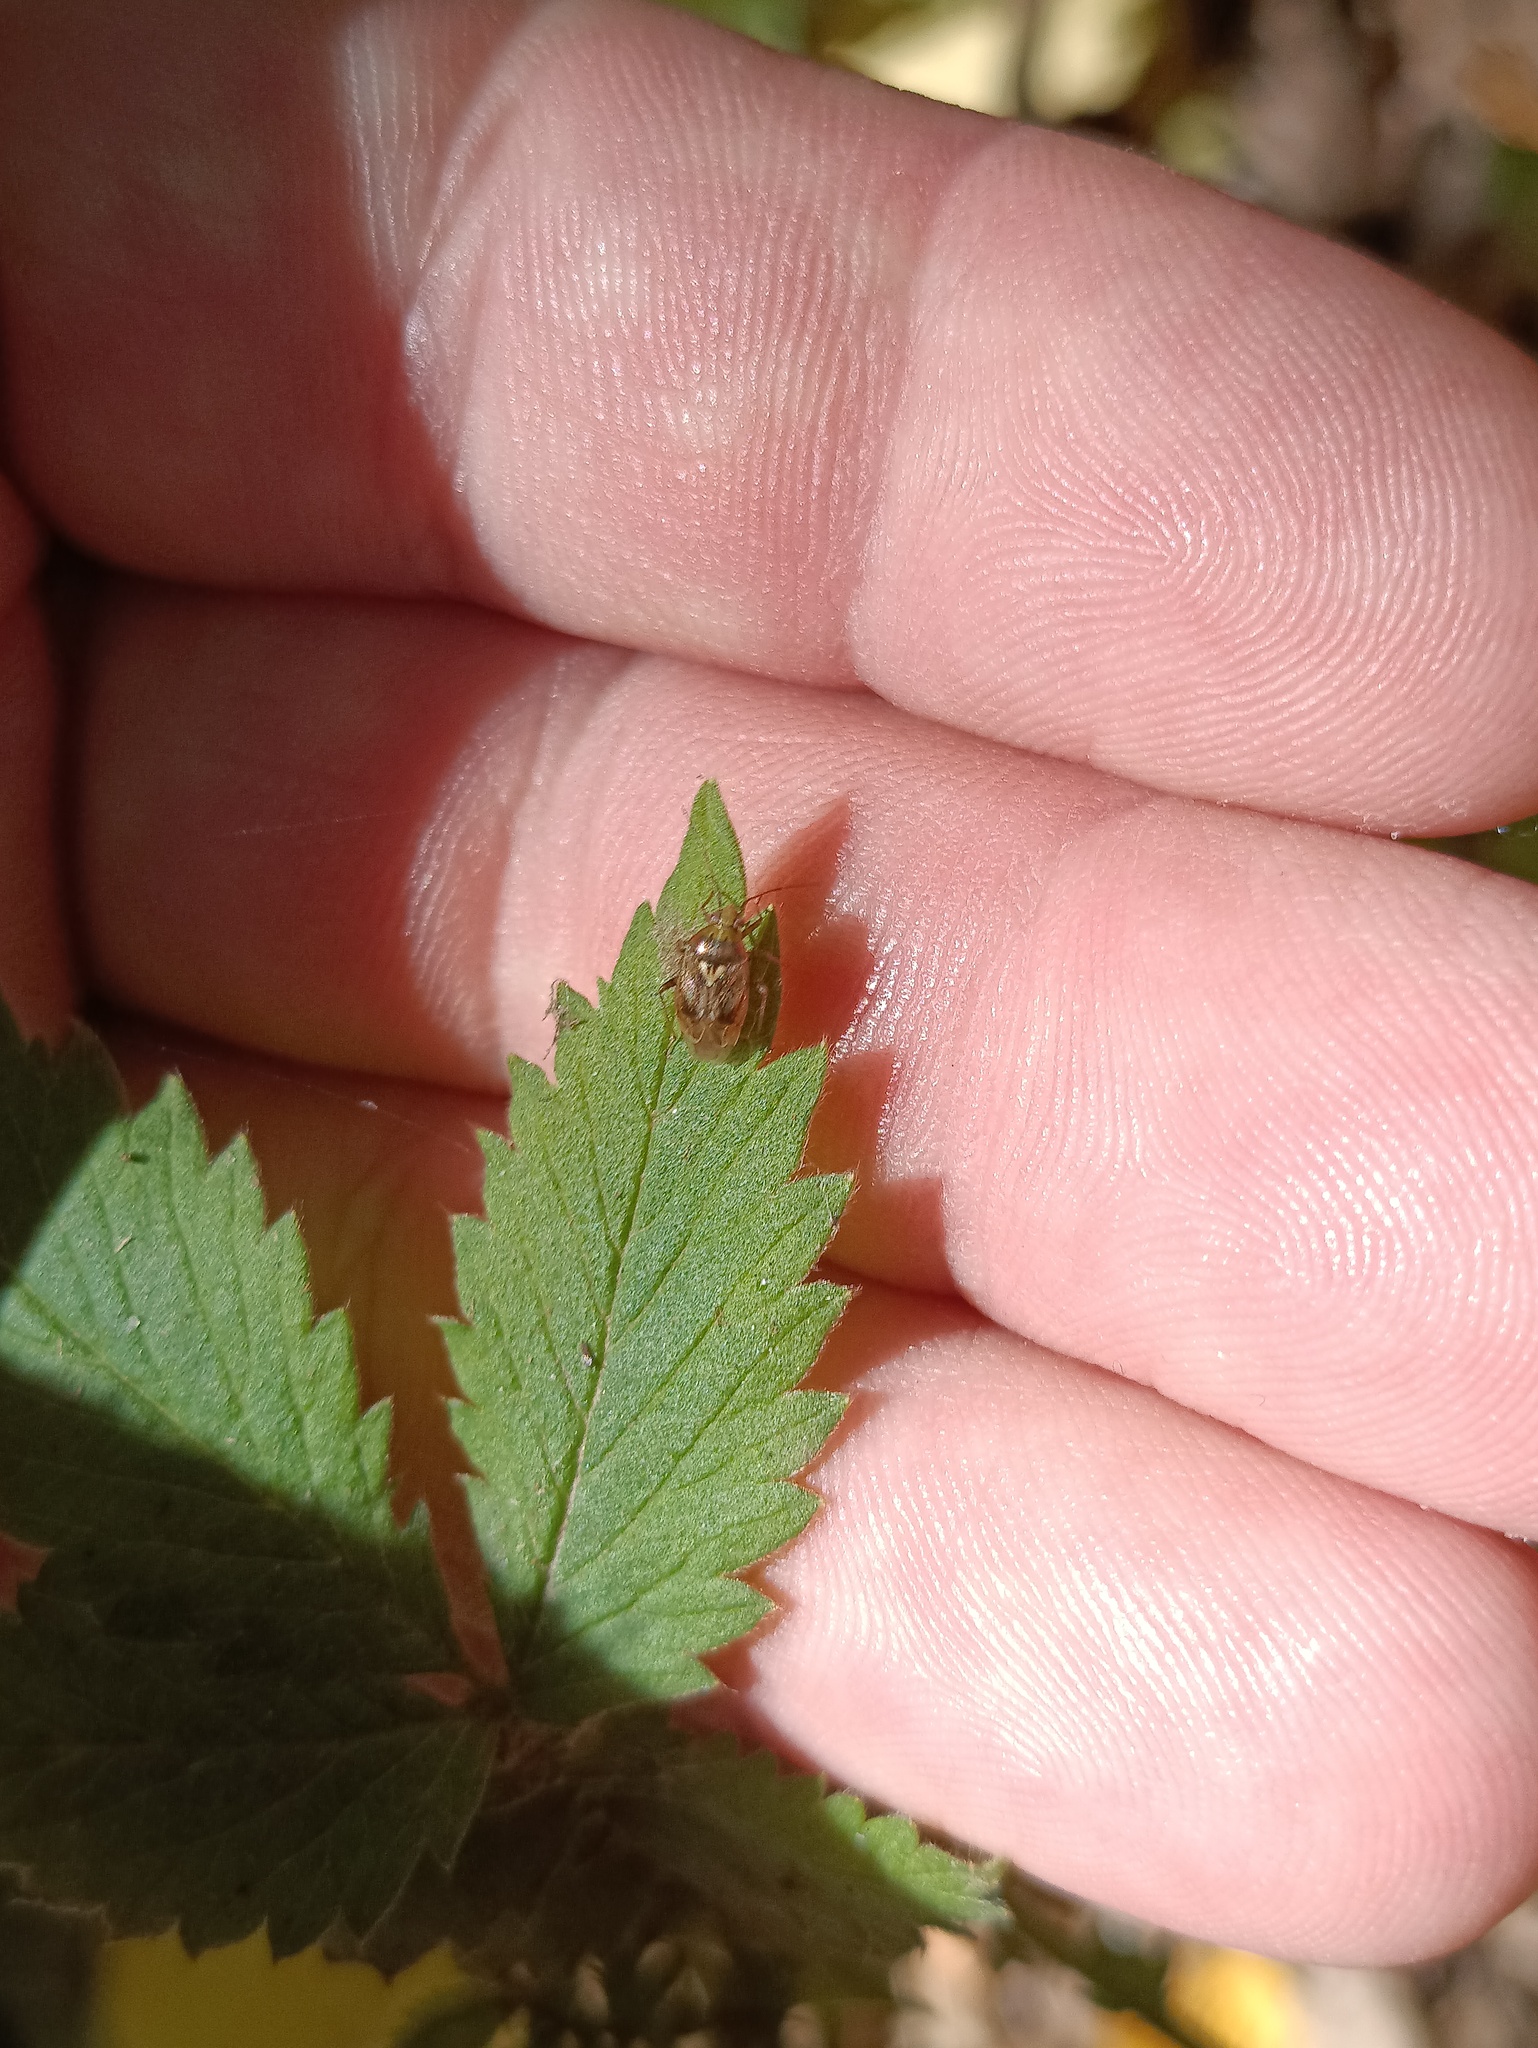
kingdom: Animalia
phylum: Arthropoda
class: Insecta
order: Hemiptera
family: Miridae
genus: Lygus
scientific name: Lygus rugulipennis
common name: European tarnished plant bug
